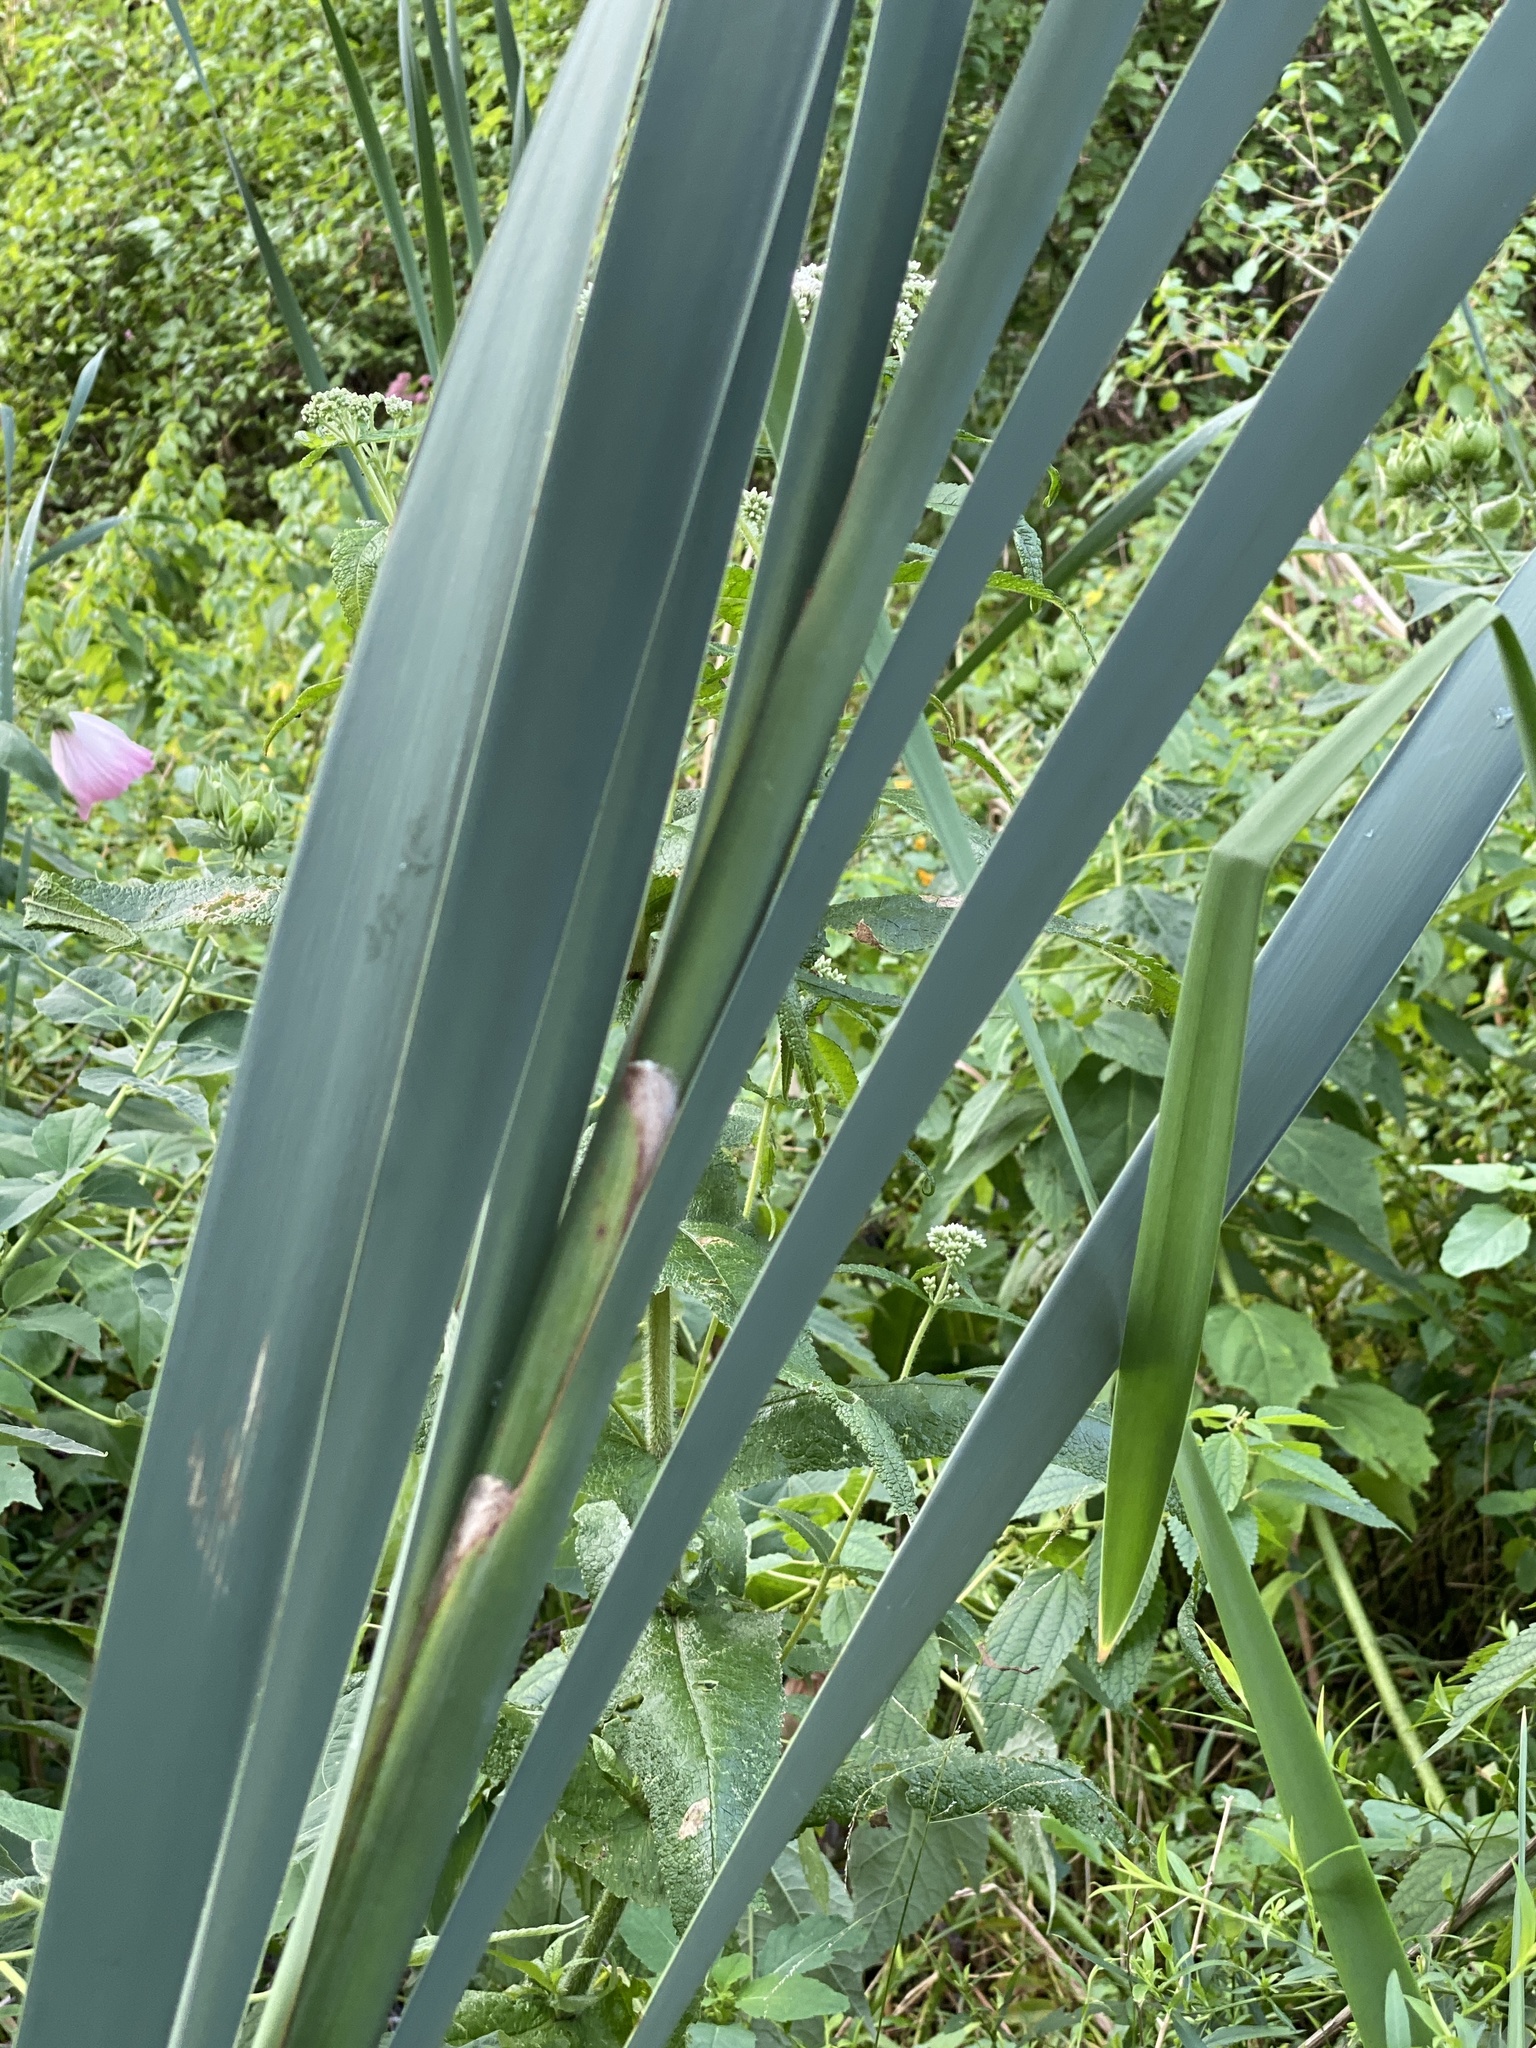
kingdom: Plantae
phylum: Tracheophyta
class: Liliopsida
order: Poales
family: Typhaceae
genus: Typha
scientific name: Typha latifolia
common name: Broadleaf cattail
